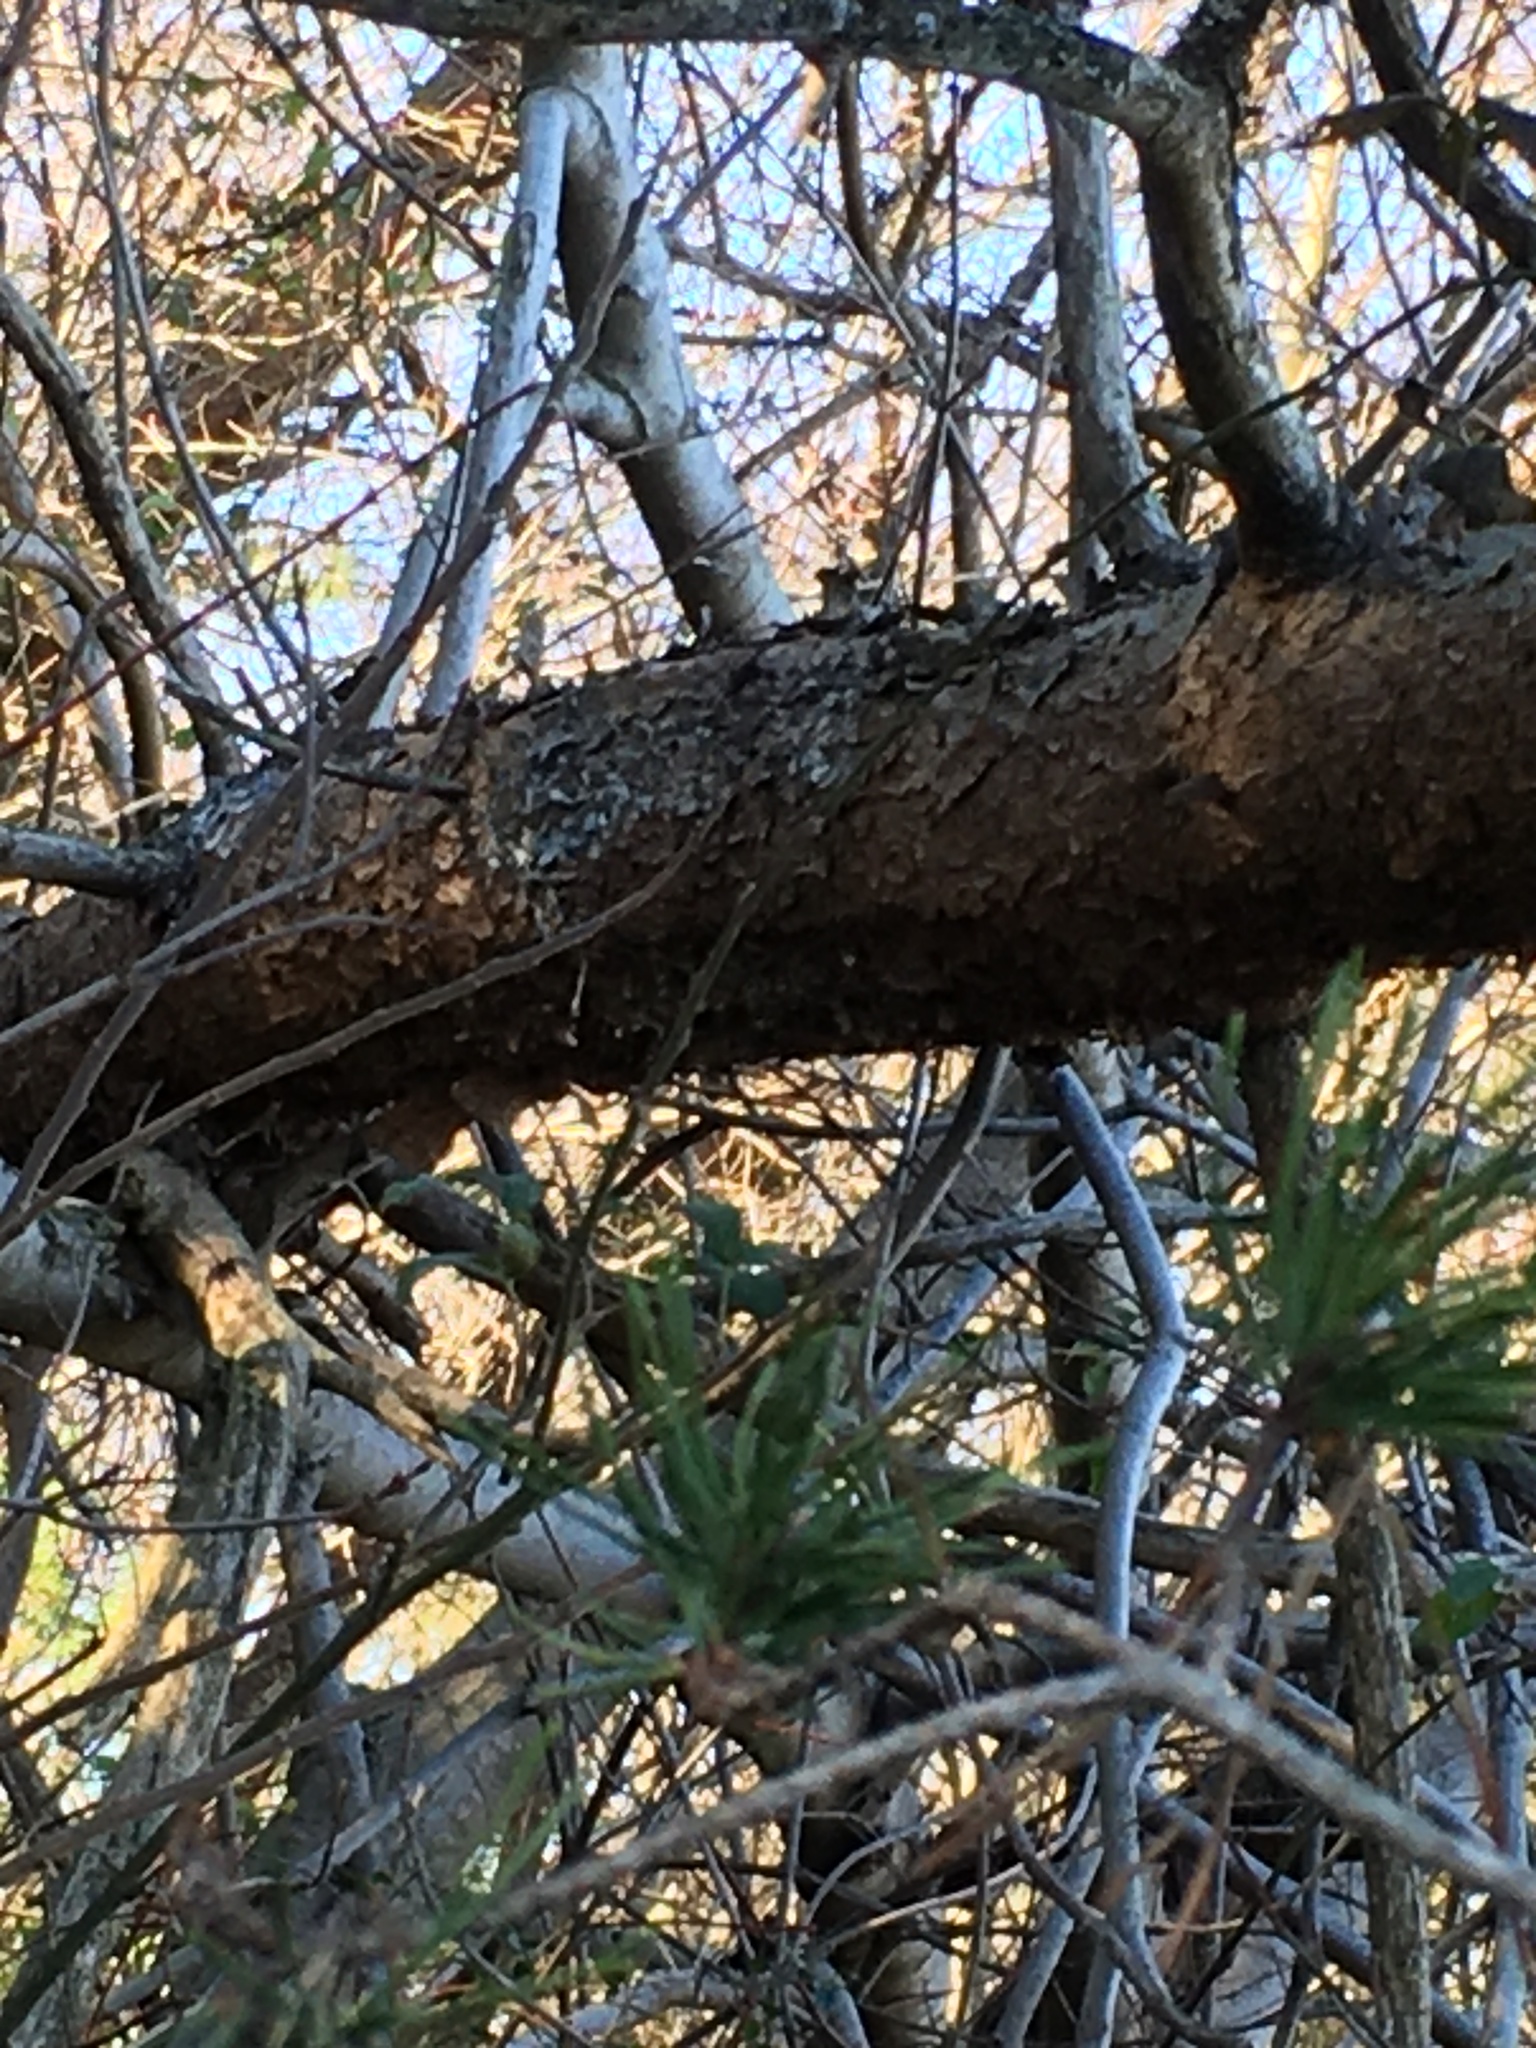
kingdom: Plantae
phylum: Tracheophyta
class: Pinopsida
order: Pinales
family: Pinaceae
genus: Pinus
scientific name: Pinus virginiana
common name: Scrub pine
